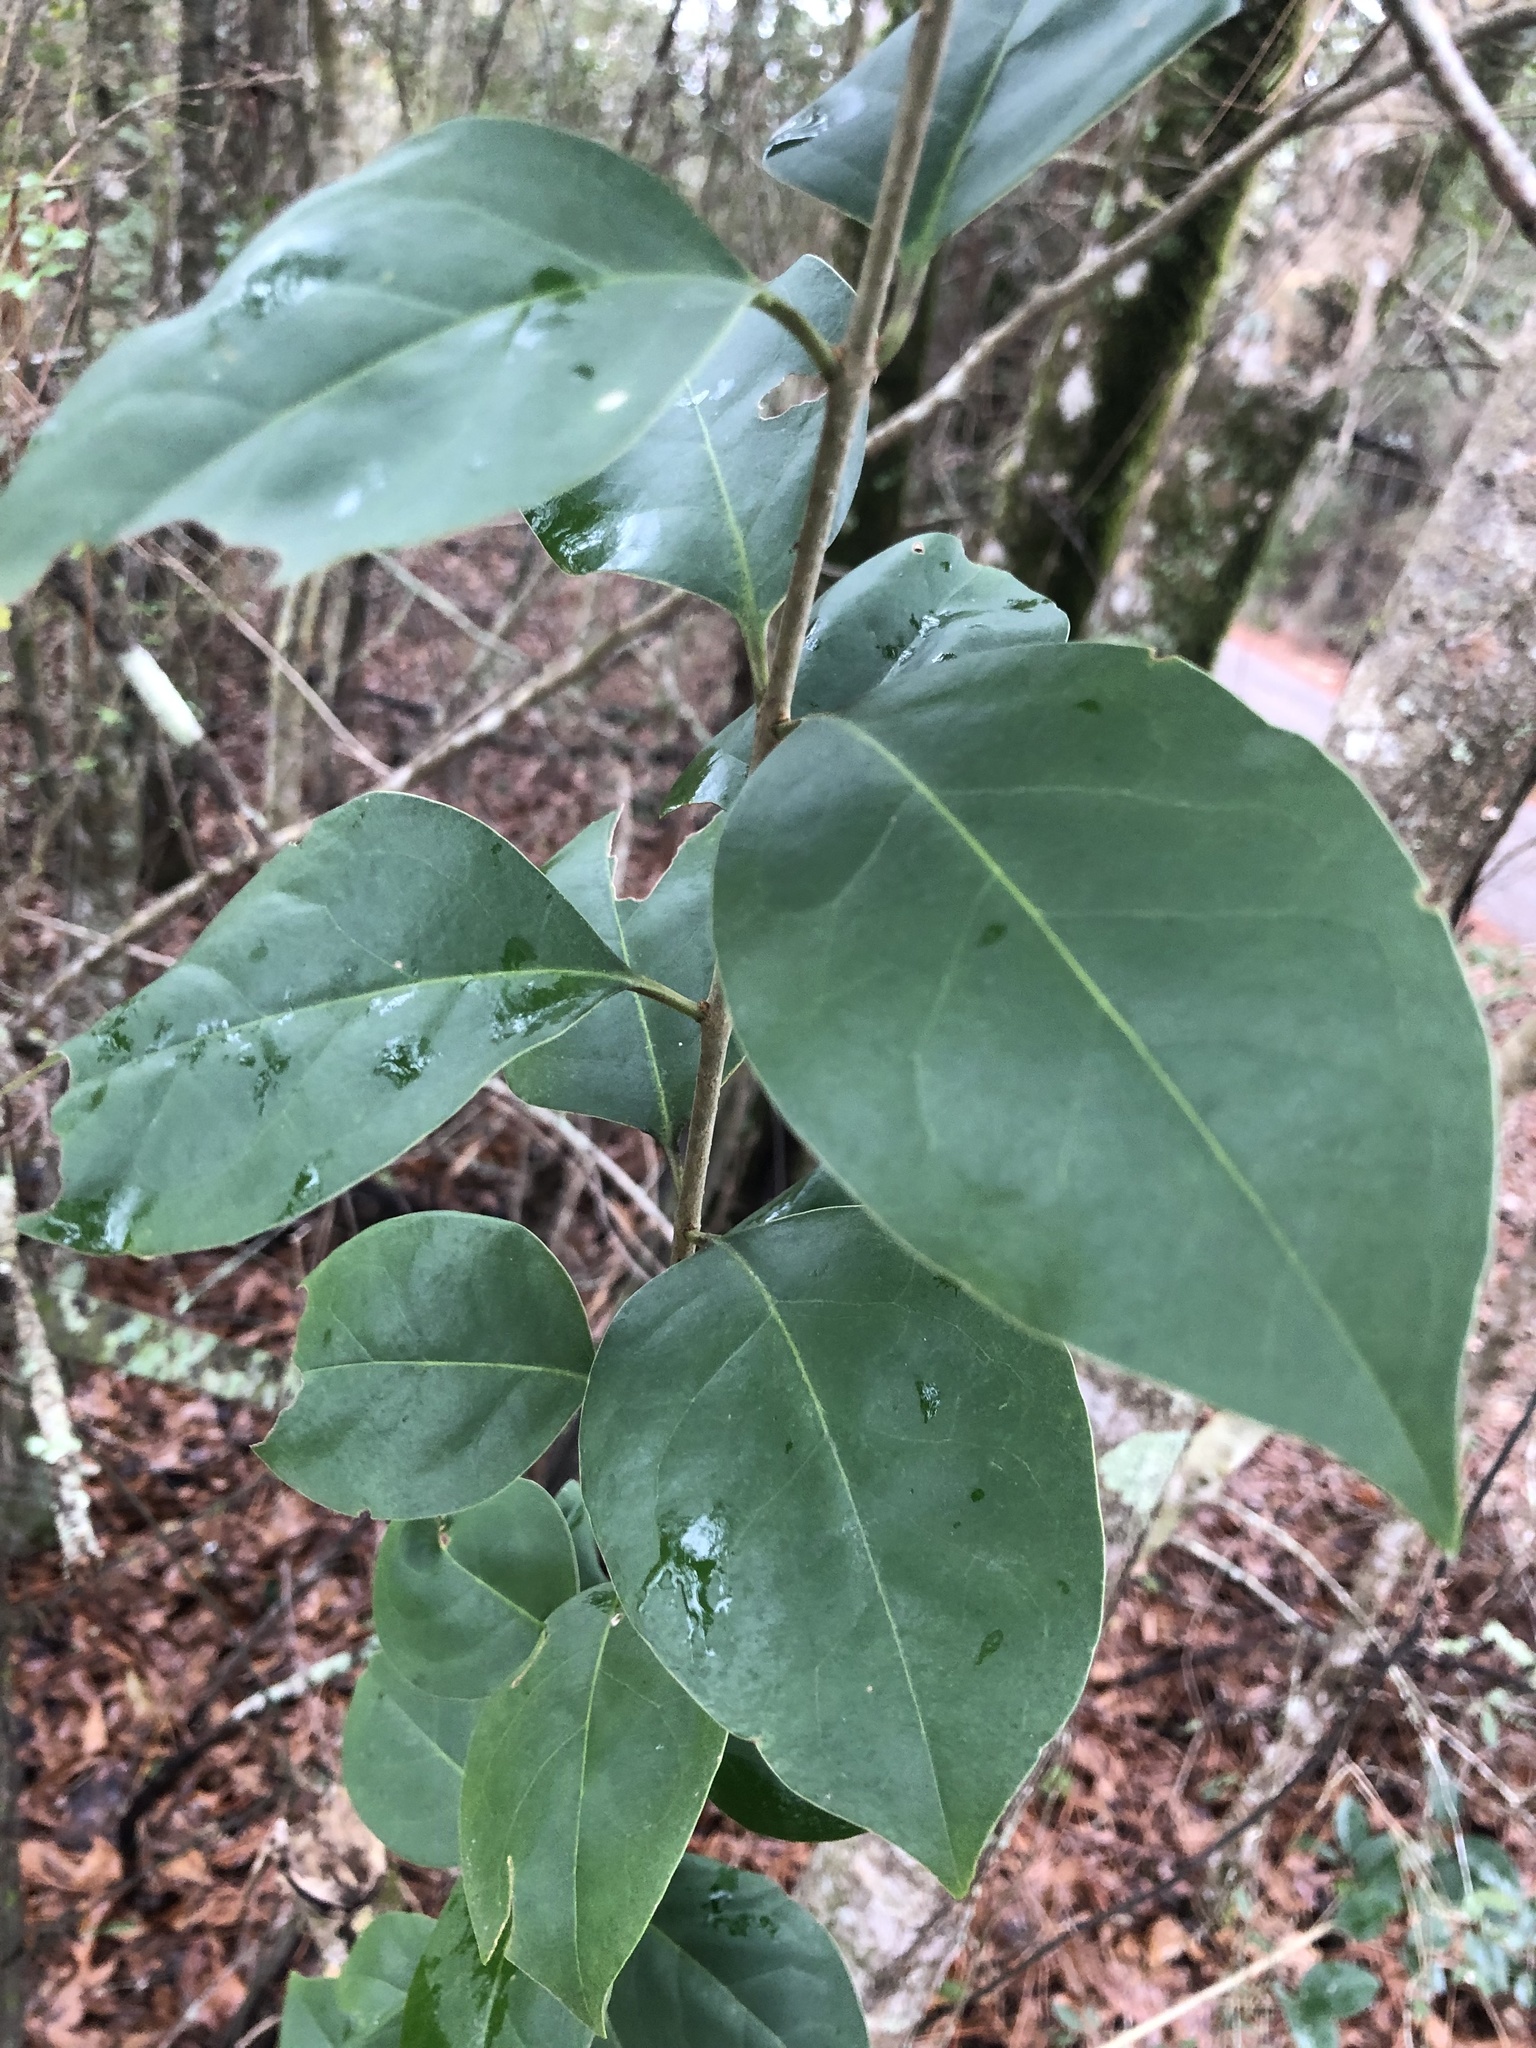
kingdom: Plantae
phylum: Tracheophyta
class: Magnoliopsida
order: Lamiales
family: Oleaceae
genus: Ligustrum
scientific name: Ligustrum lucidum
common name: Glossy privet
